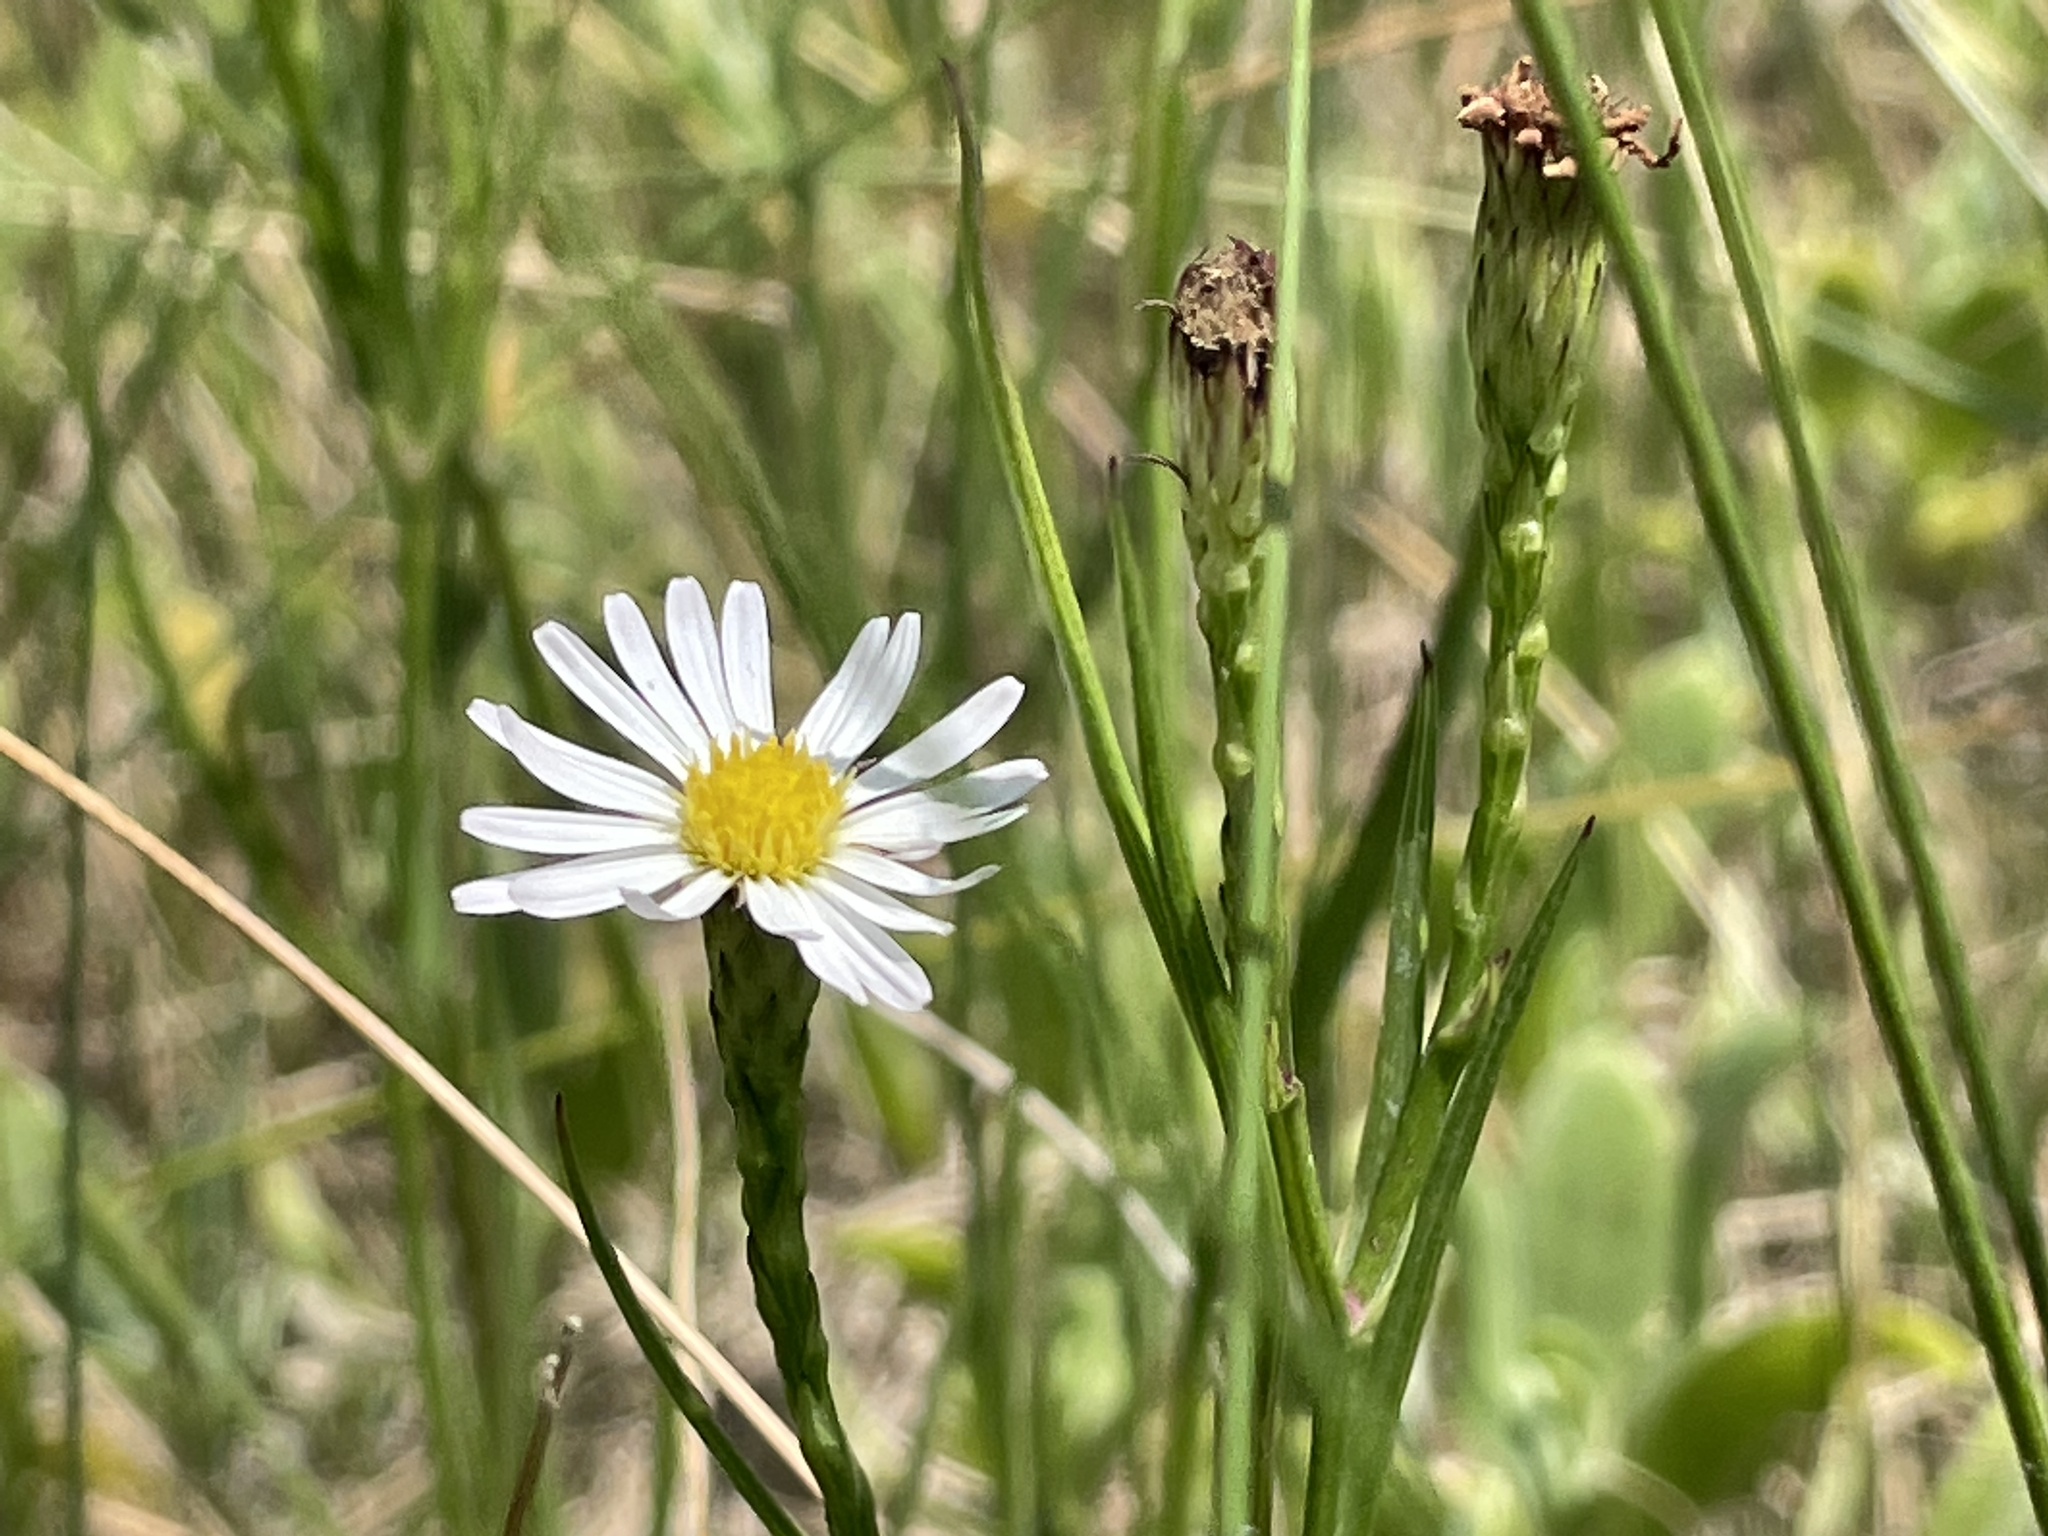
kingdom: Plantae
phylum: Tracheophyta
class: Magnoliopsida
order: Asterales
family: Asteraceae
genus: Symphyotrichum
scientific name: Symphyotrichum tenuifolium
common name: Perennial salt-marsh aster
